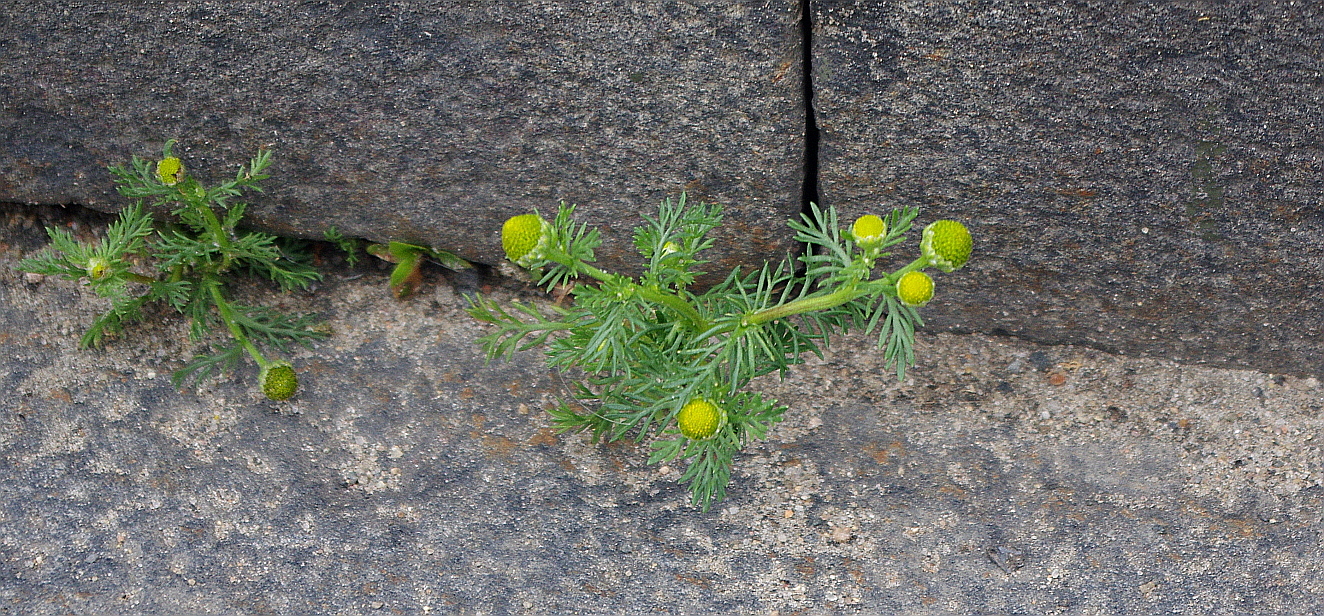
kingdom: Plantae
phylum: Tracheophyta
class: Magnoliopsida
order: Asterales
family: Asteraceae
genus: Matricaria
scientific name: Matricaria discoidea
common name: Disc mayweed
